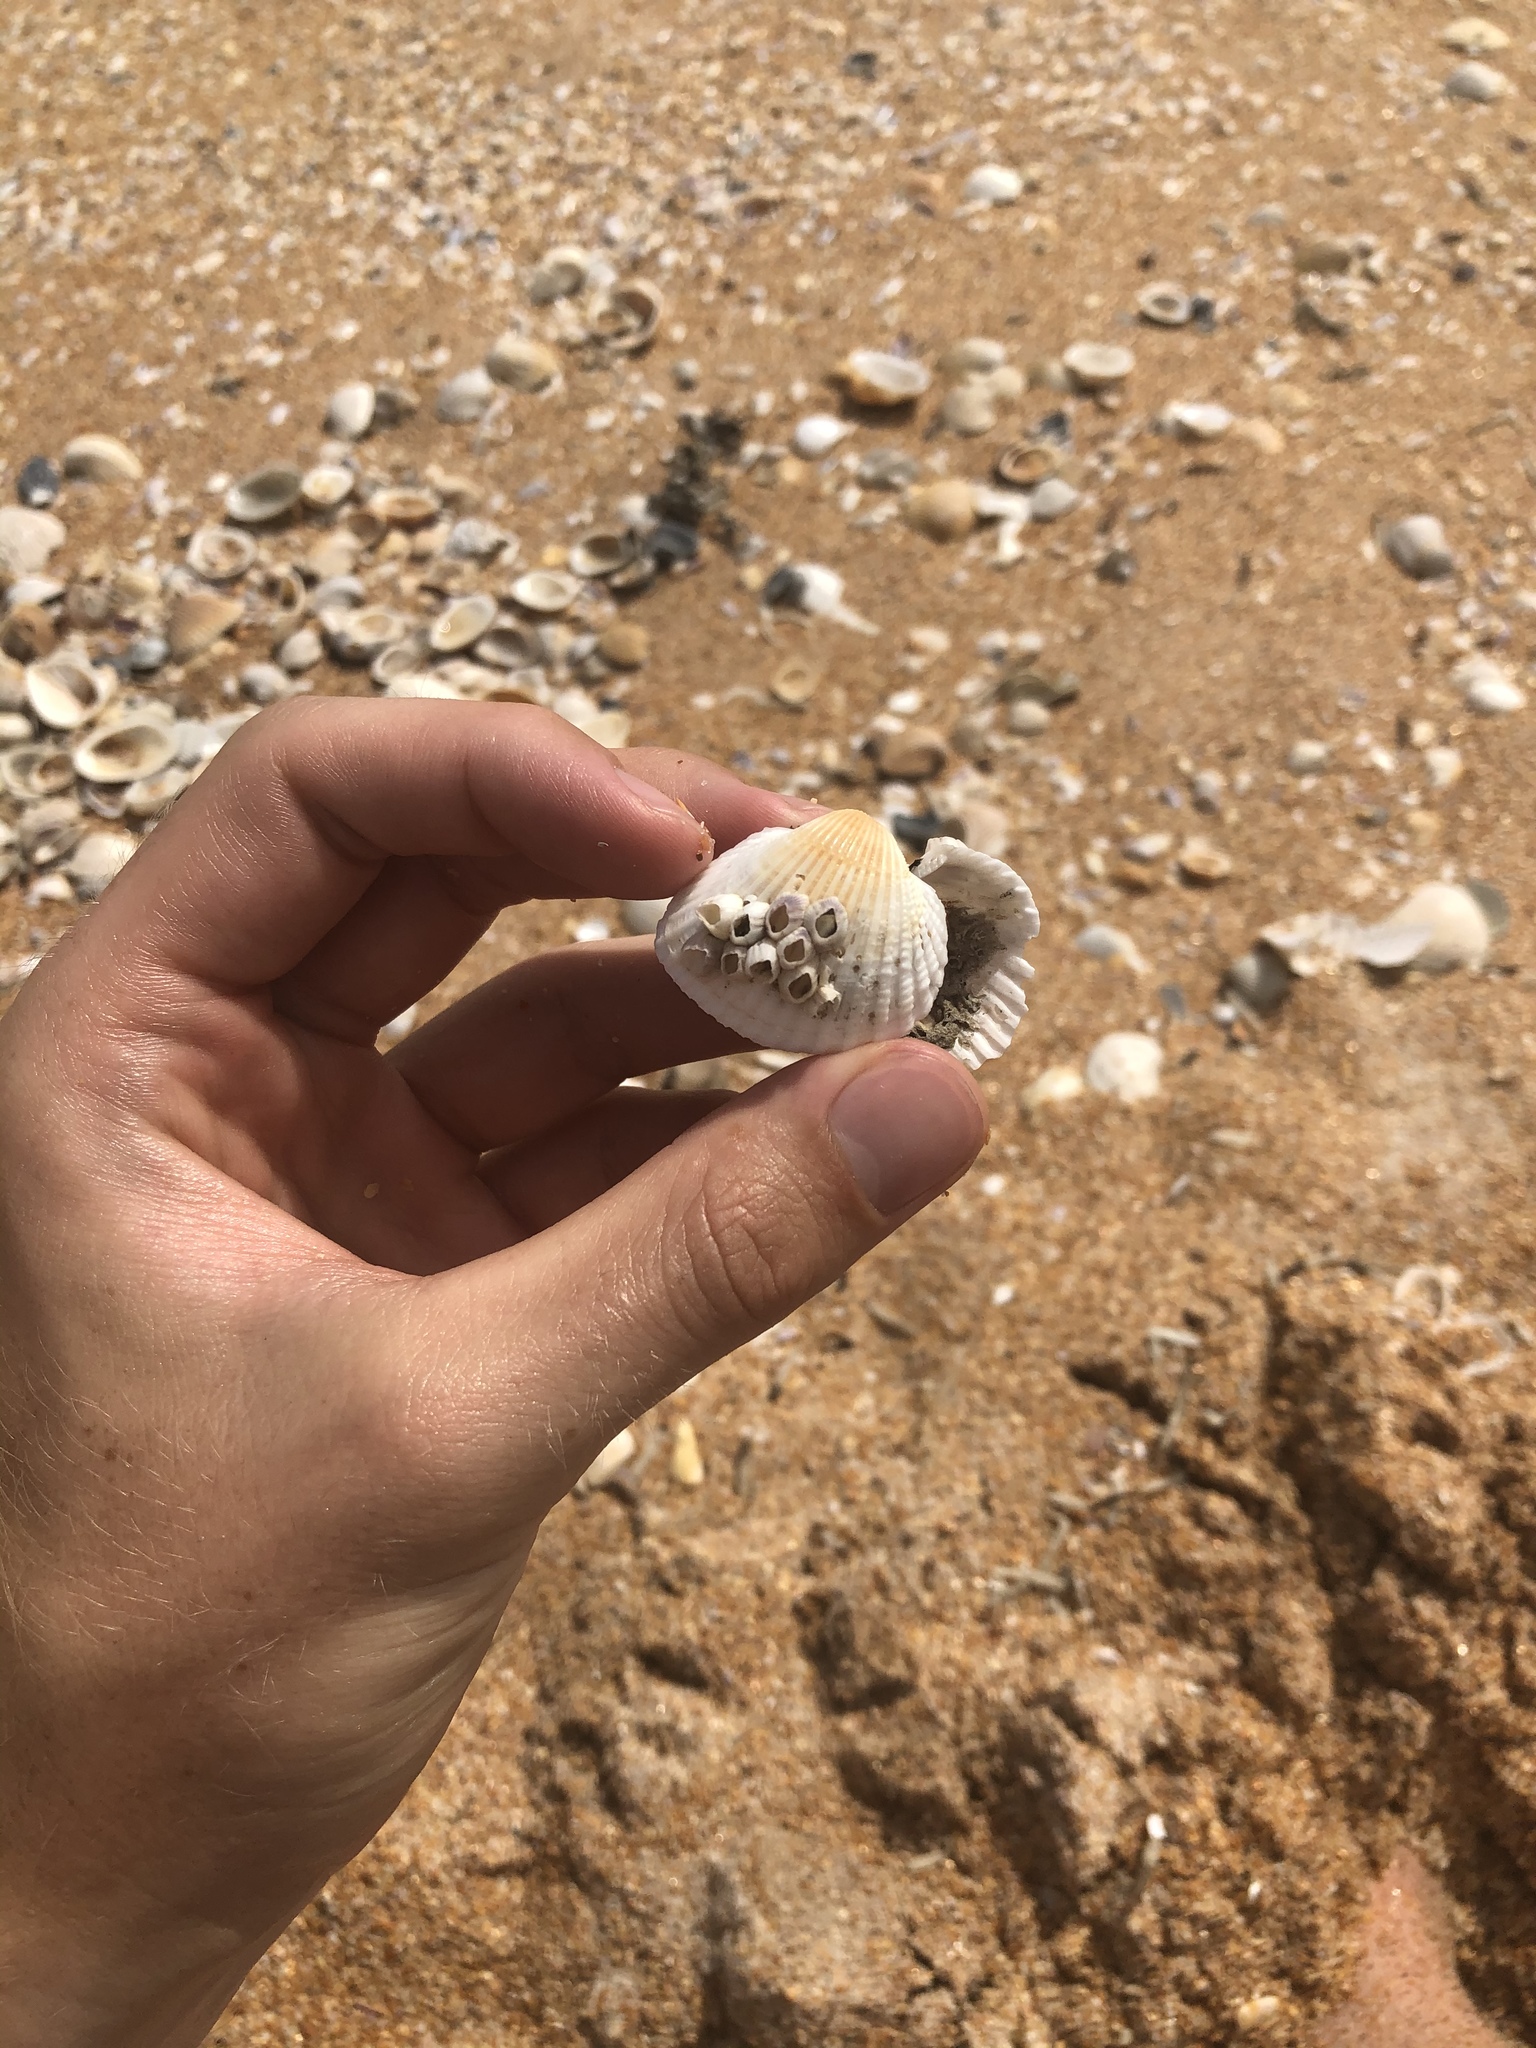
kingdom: Animalia
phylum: Mollusca
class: Bivalvia
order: Arcida
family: Arcidae
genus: Anadara
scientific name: Anadara brasiliana
